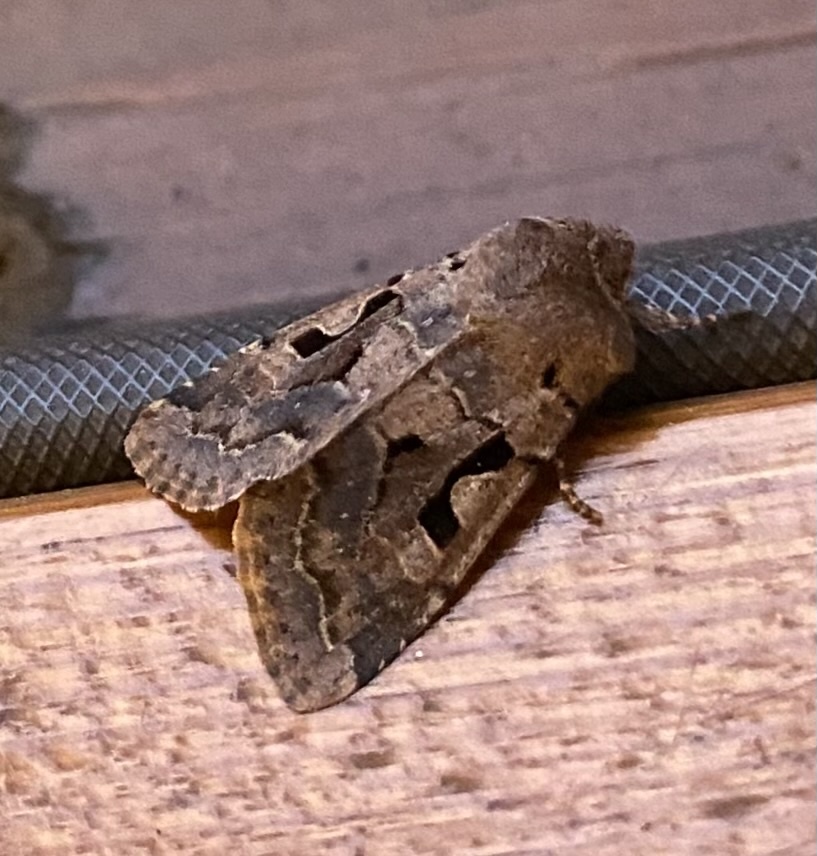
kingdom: Animalia
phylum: Arthropoda
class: Insecta
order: Lepidoptera
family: Noctuidae
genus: Orthosia
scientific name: Orthosia gothica
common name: Hebrew character
